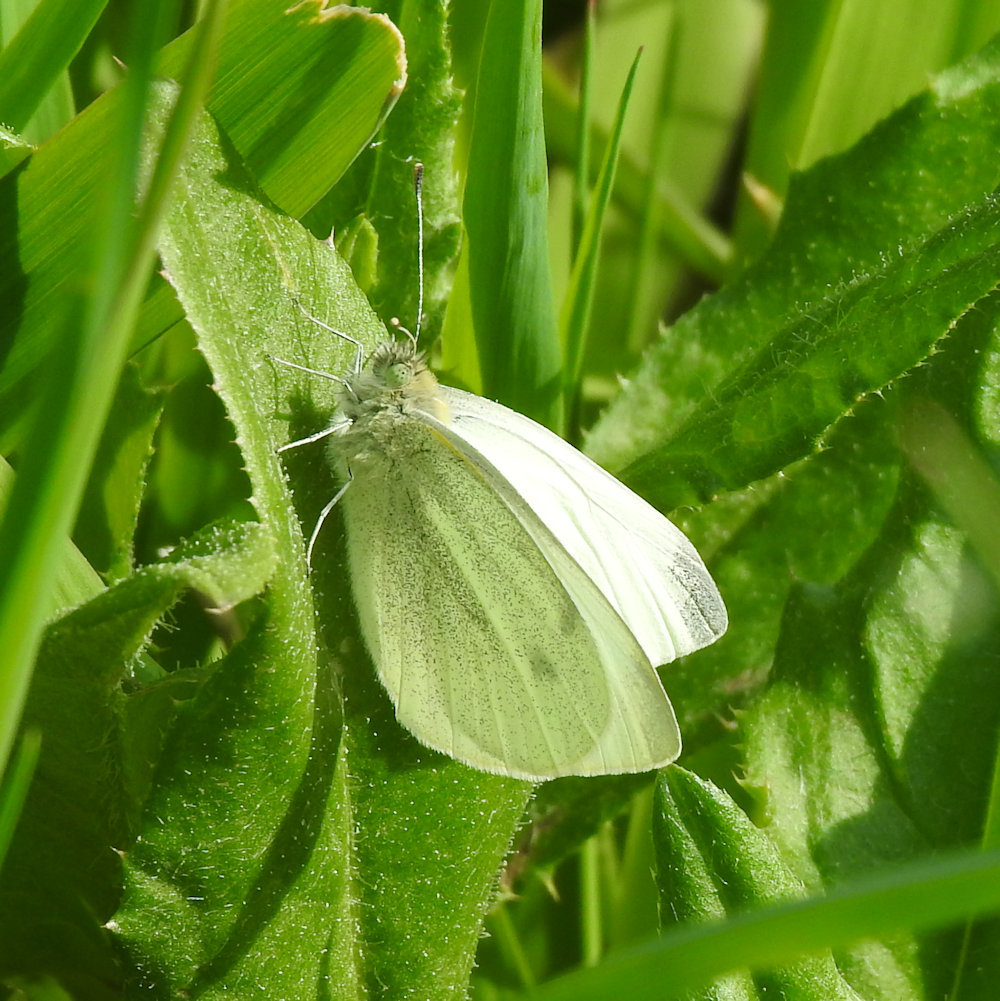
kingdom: Animalia
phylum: Arthropoda
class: Insecta
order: Lepidoptera
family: Pieridae
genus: Pieris
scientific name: Pieris rapae
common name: Small white
